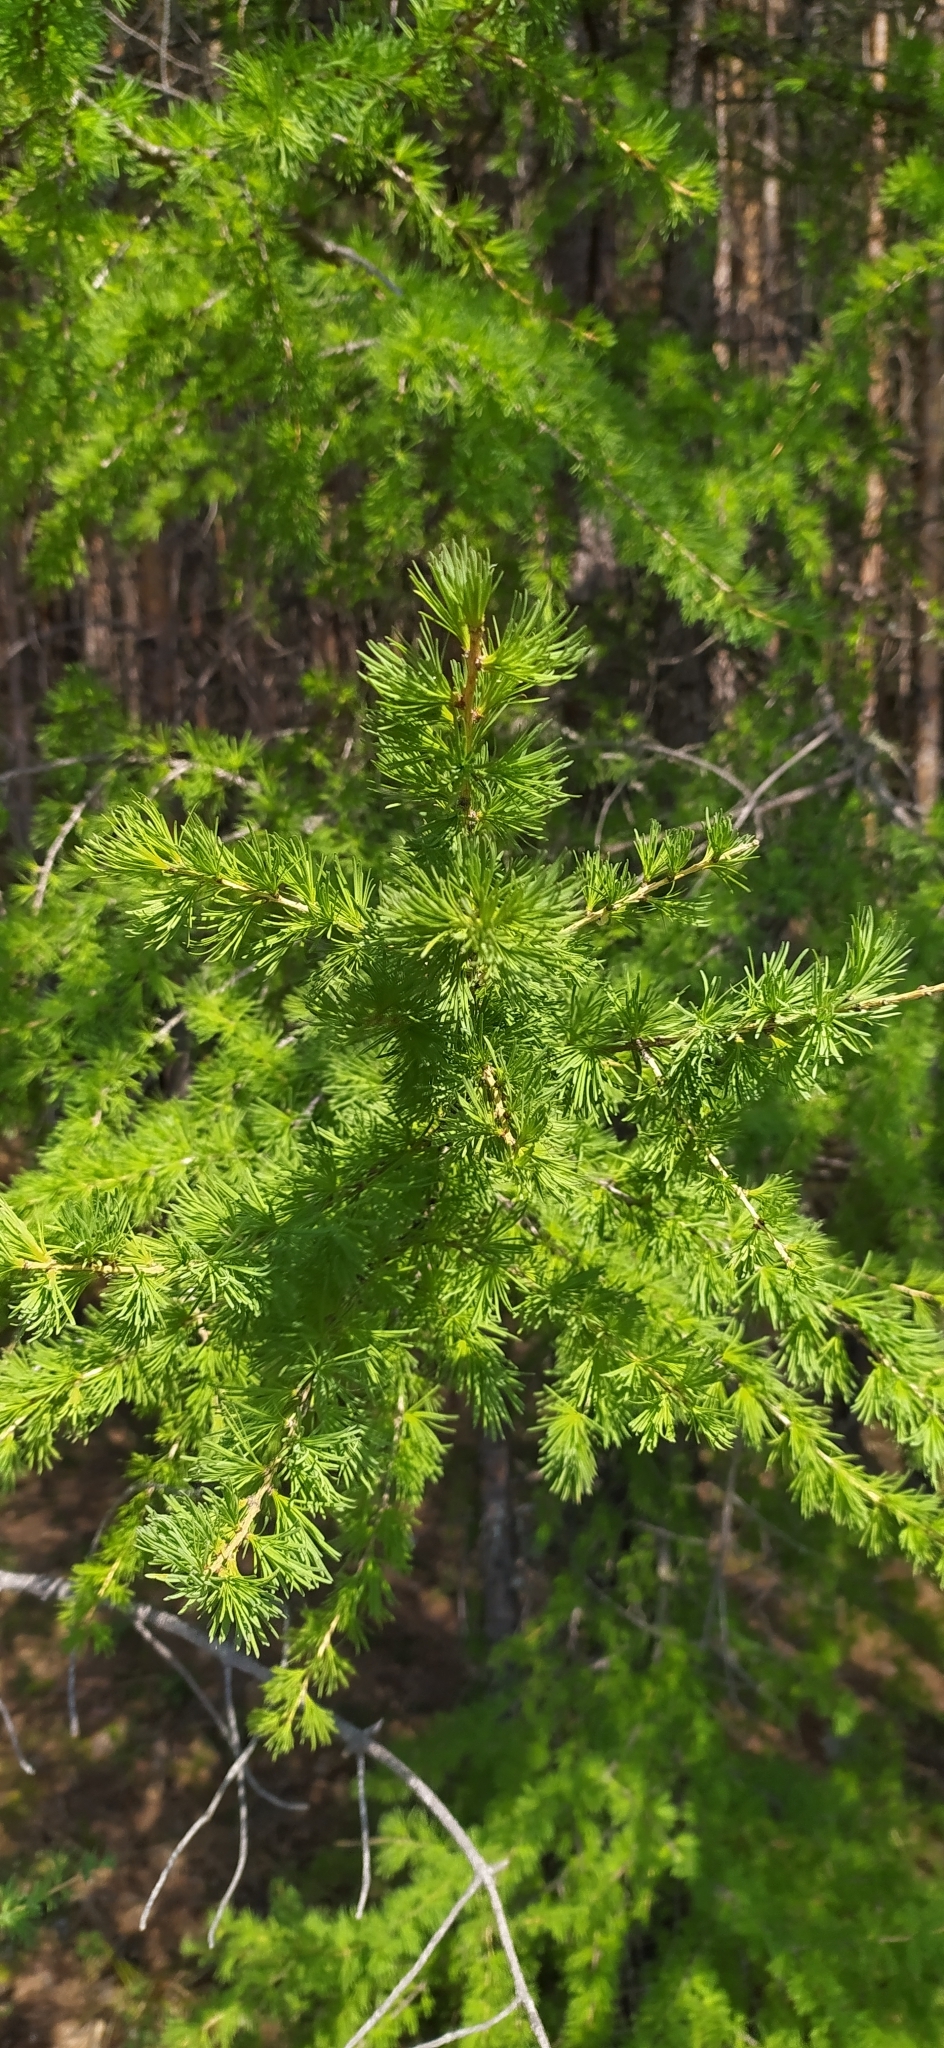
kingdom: Plantae
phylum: Tracheophyta
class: Pinopsida
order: Pinales
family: Pinaceae
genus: Larix
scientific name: Larix sibirica
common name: Siberian larch
